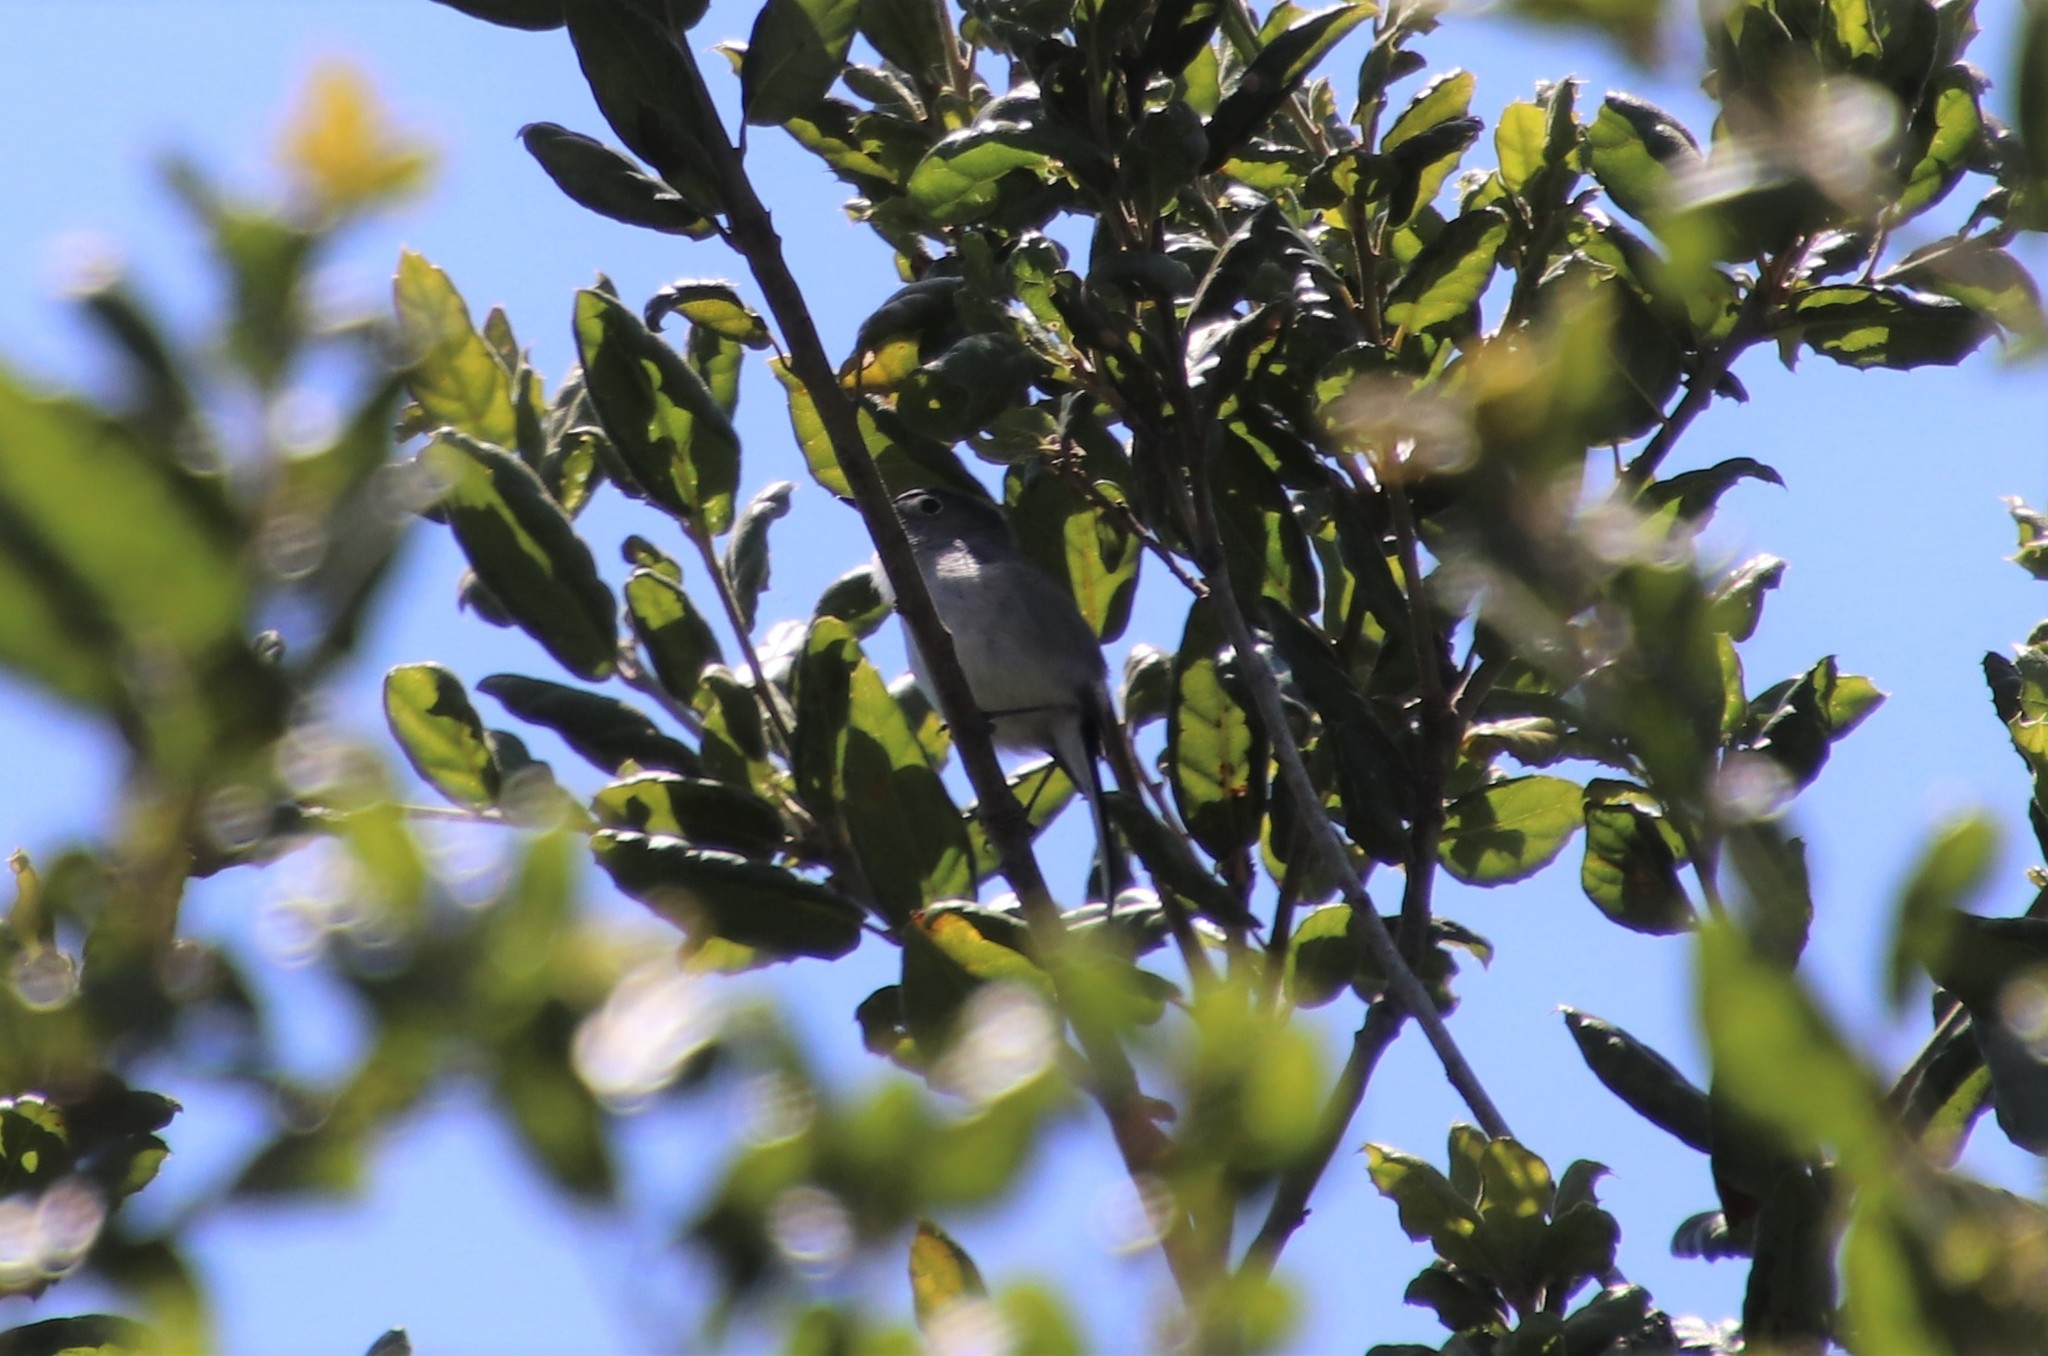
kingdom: Animalia
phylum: Chordata
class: Aves
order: Passeriformes
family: Polioptilidae
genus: Polioptila
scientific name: Polioptila caerulea
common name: Blue-gray gnatcatcher
